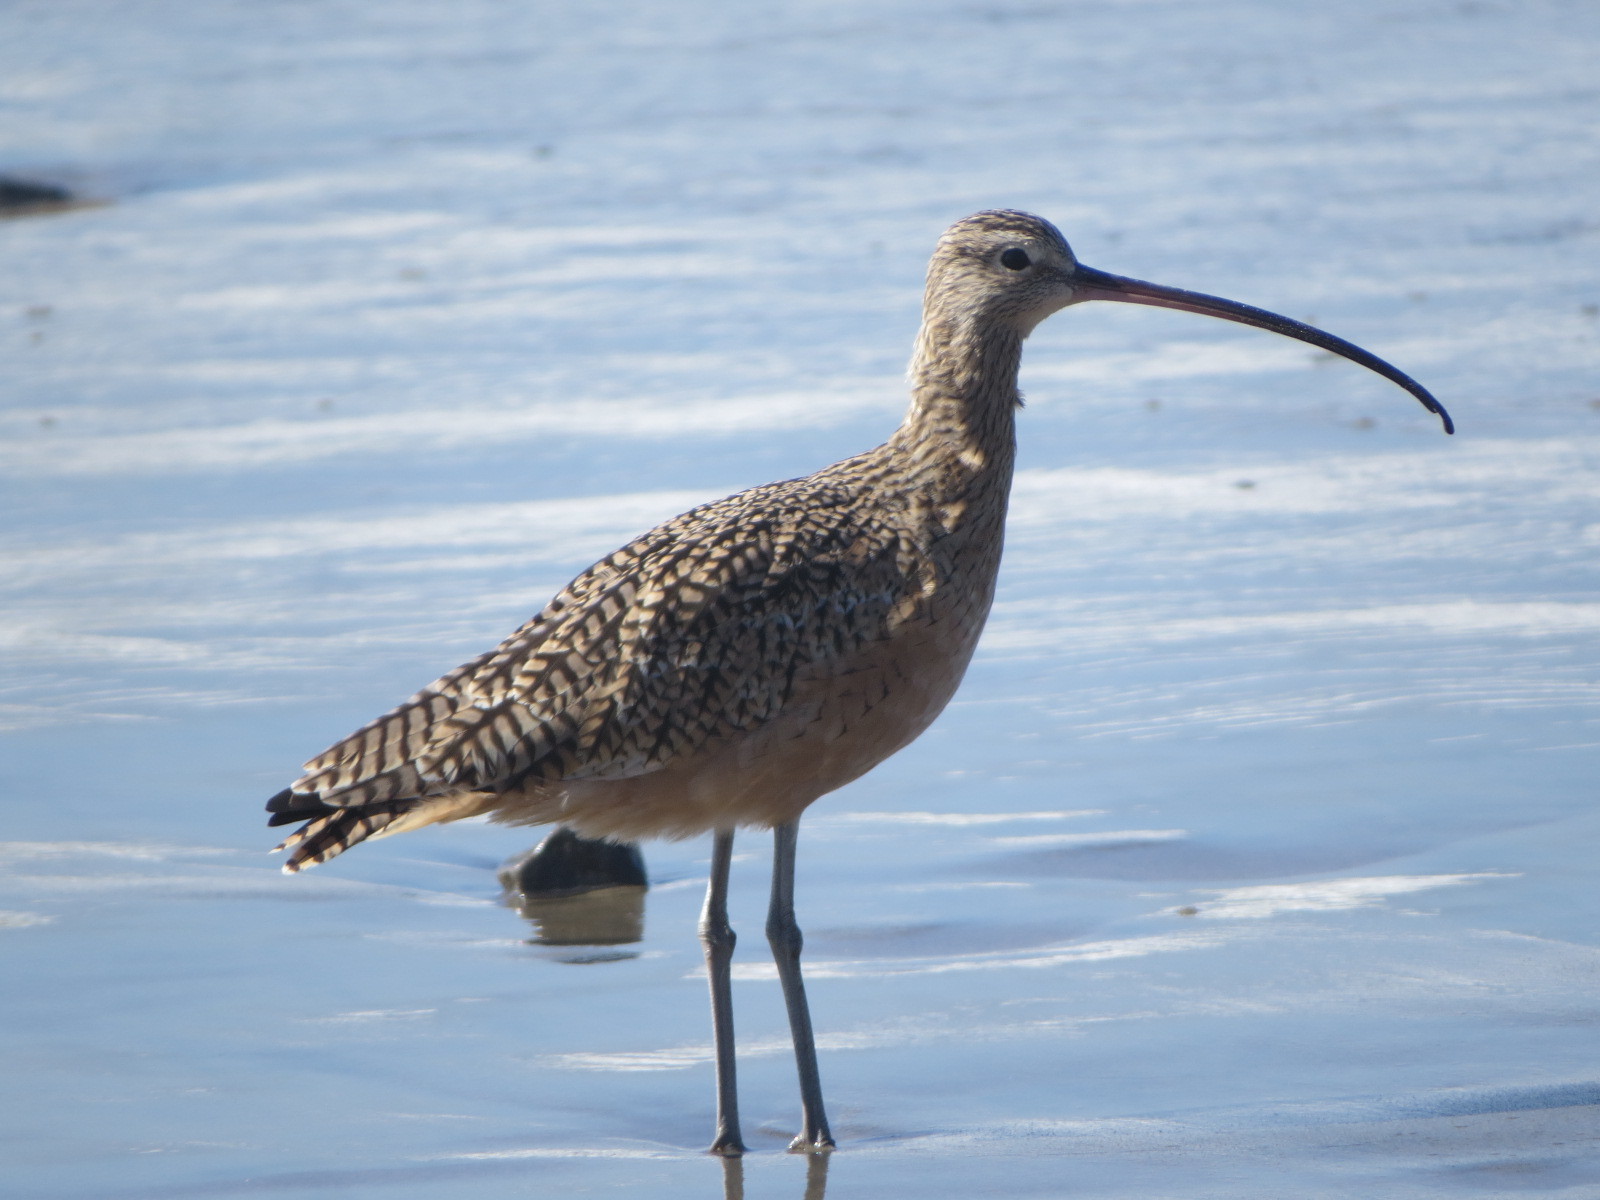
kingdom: Animalia
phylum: Chordata
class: Aves
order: Charadriiformes
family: Scolopacidae
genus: Numenius
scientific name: Numenius americanus
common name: Long-billed curlew
